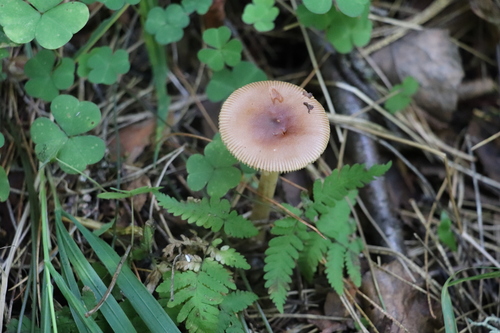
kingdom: Fungi
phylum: Basidiomycota
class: Agaricomycetes
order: Agaricales
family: Amanitaceae
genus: Amanita
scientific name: Amanita fulva
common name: Tawny grisette
